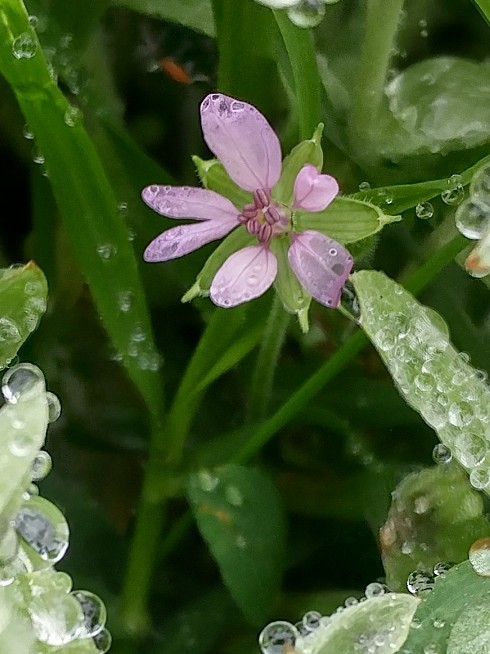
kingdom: Plantae
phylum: Tracheophyta
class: Magnoliopsida
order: Geraniales
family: Geraniaceae
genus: Erodium
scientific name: Erodium moschatum
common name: Musk stork's-bill
